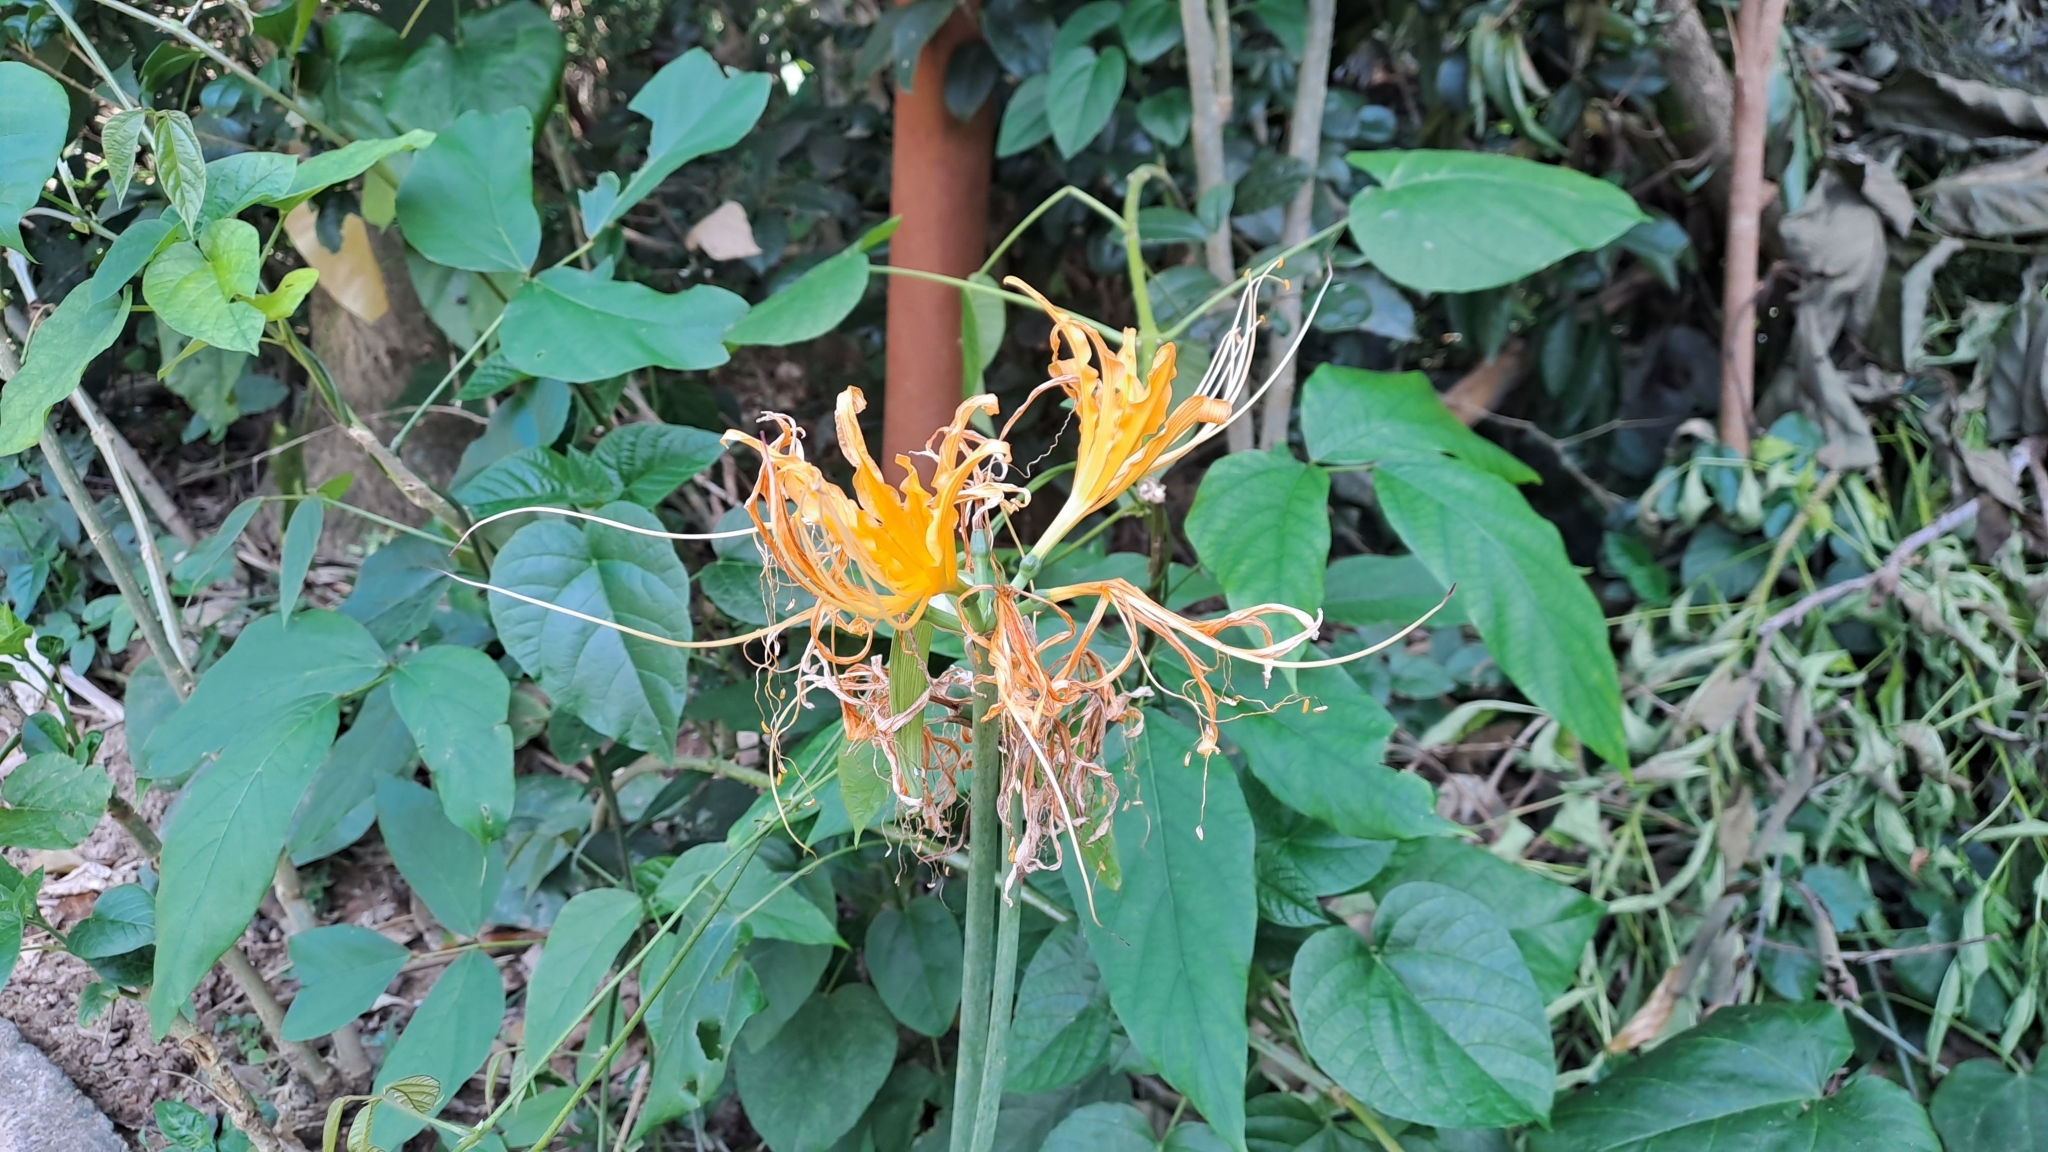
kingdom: Plantae
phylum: Tracheophyta
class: Liliopsida
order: Asparagales
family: Amaryllidaceae
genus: Lycoris
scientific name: Lycoris aurea
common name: Golden hurricane-lily
